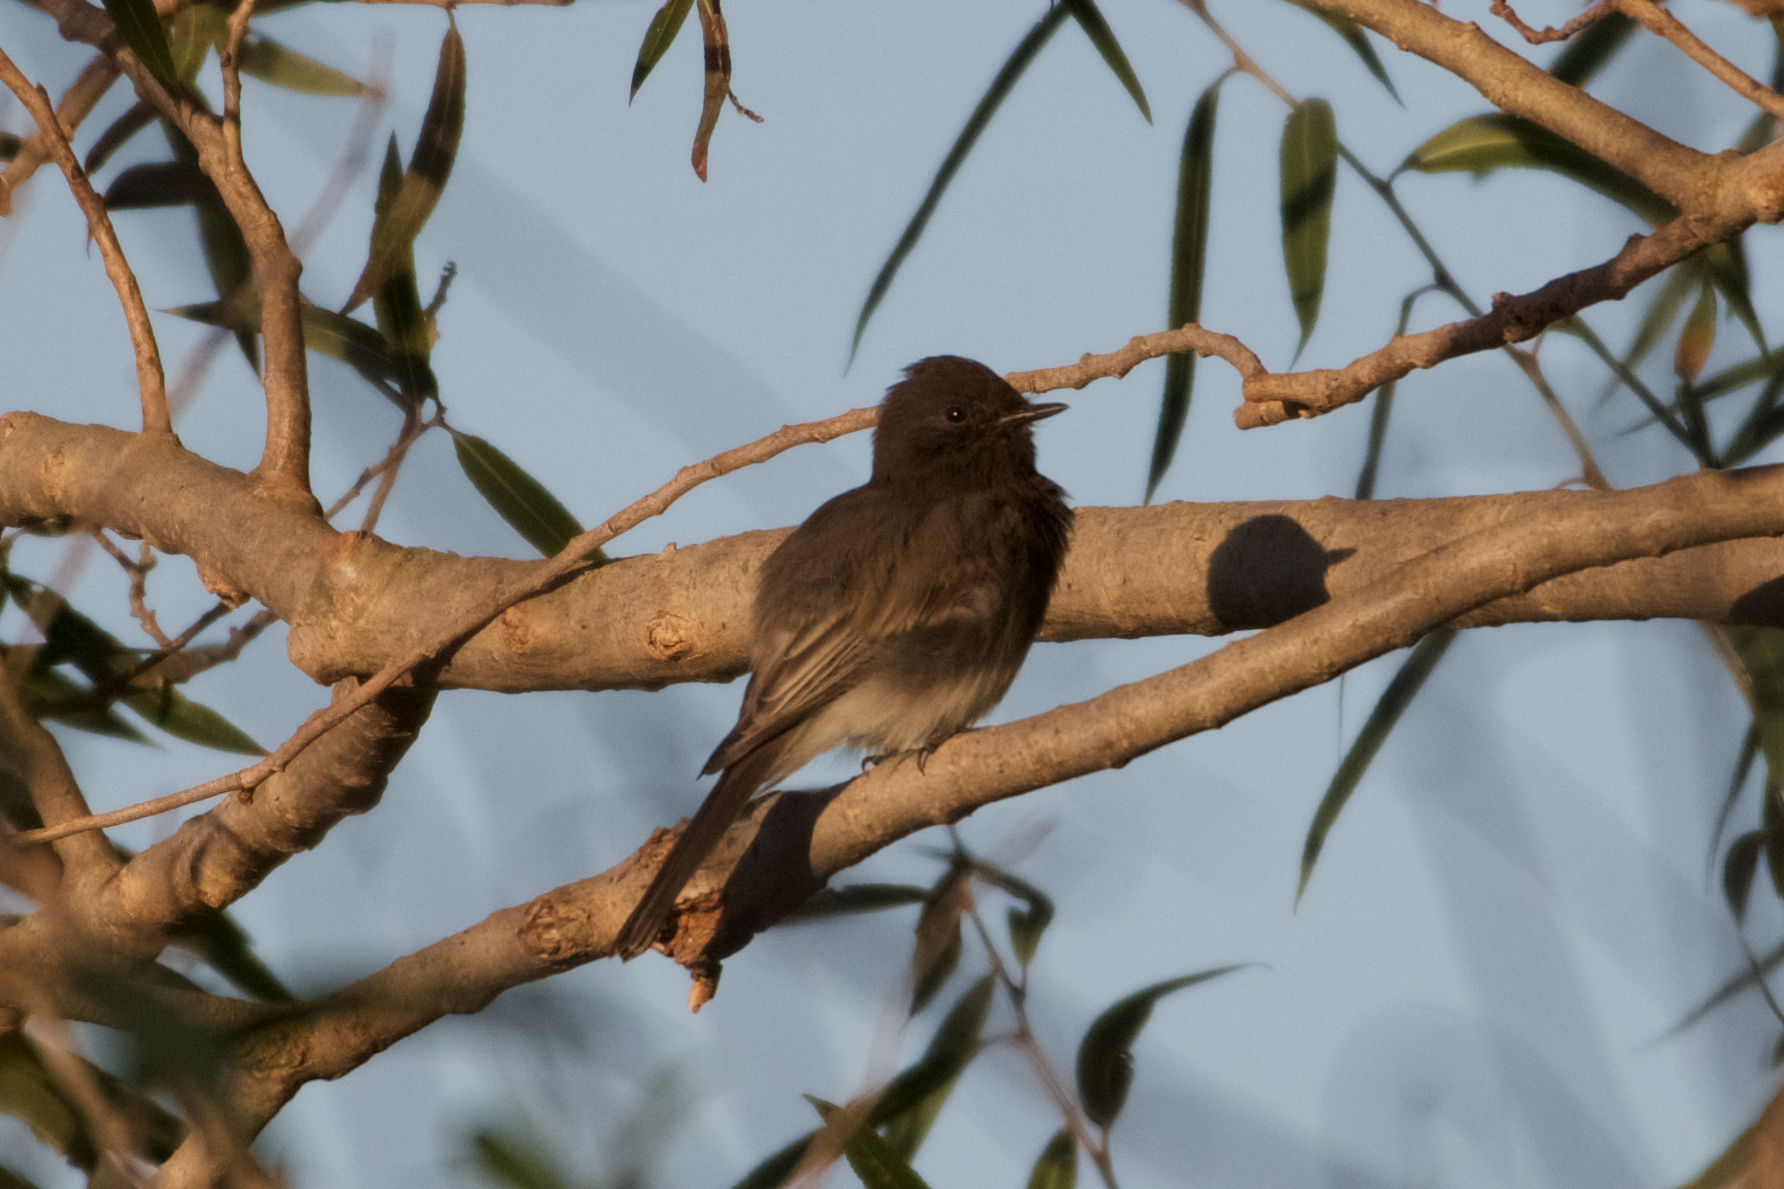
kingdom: Animalia
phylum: Chordata
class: Aves
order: Passeriformes
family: Tyrannidae
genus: Sayornis
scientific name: Sayornis nigricans
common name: Black phoebe
